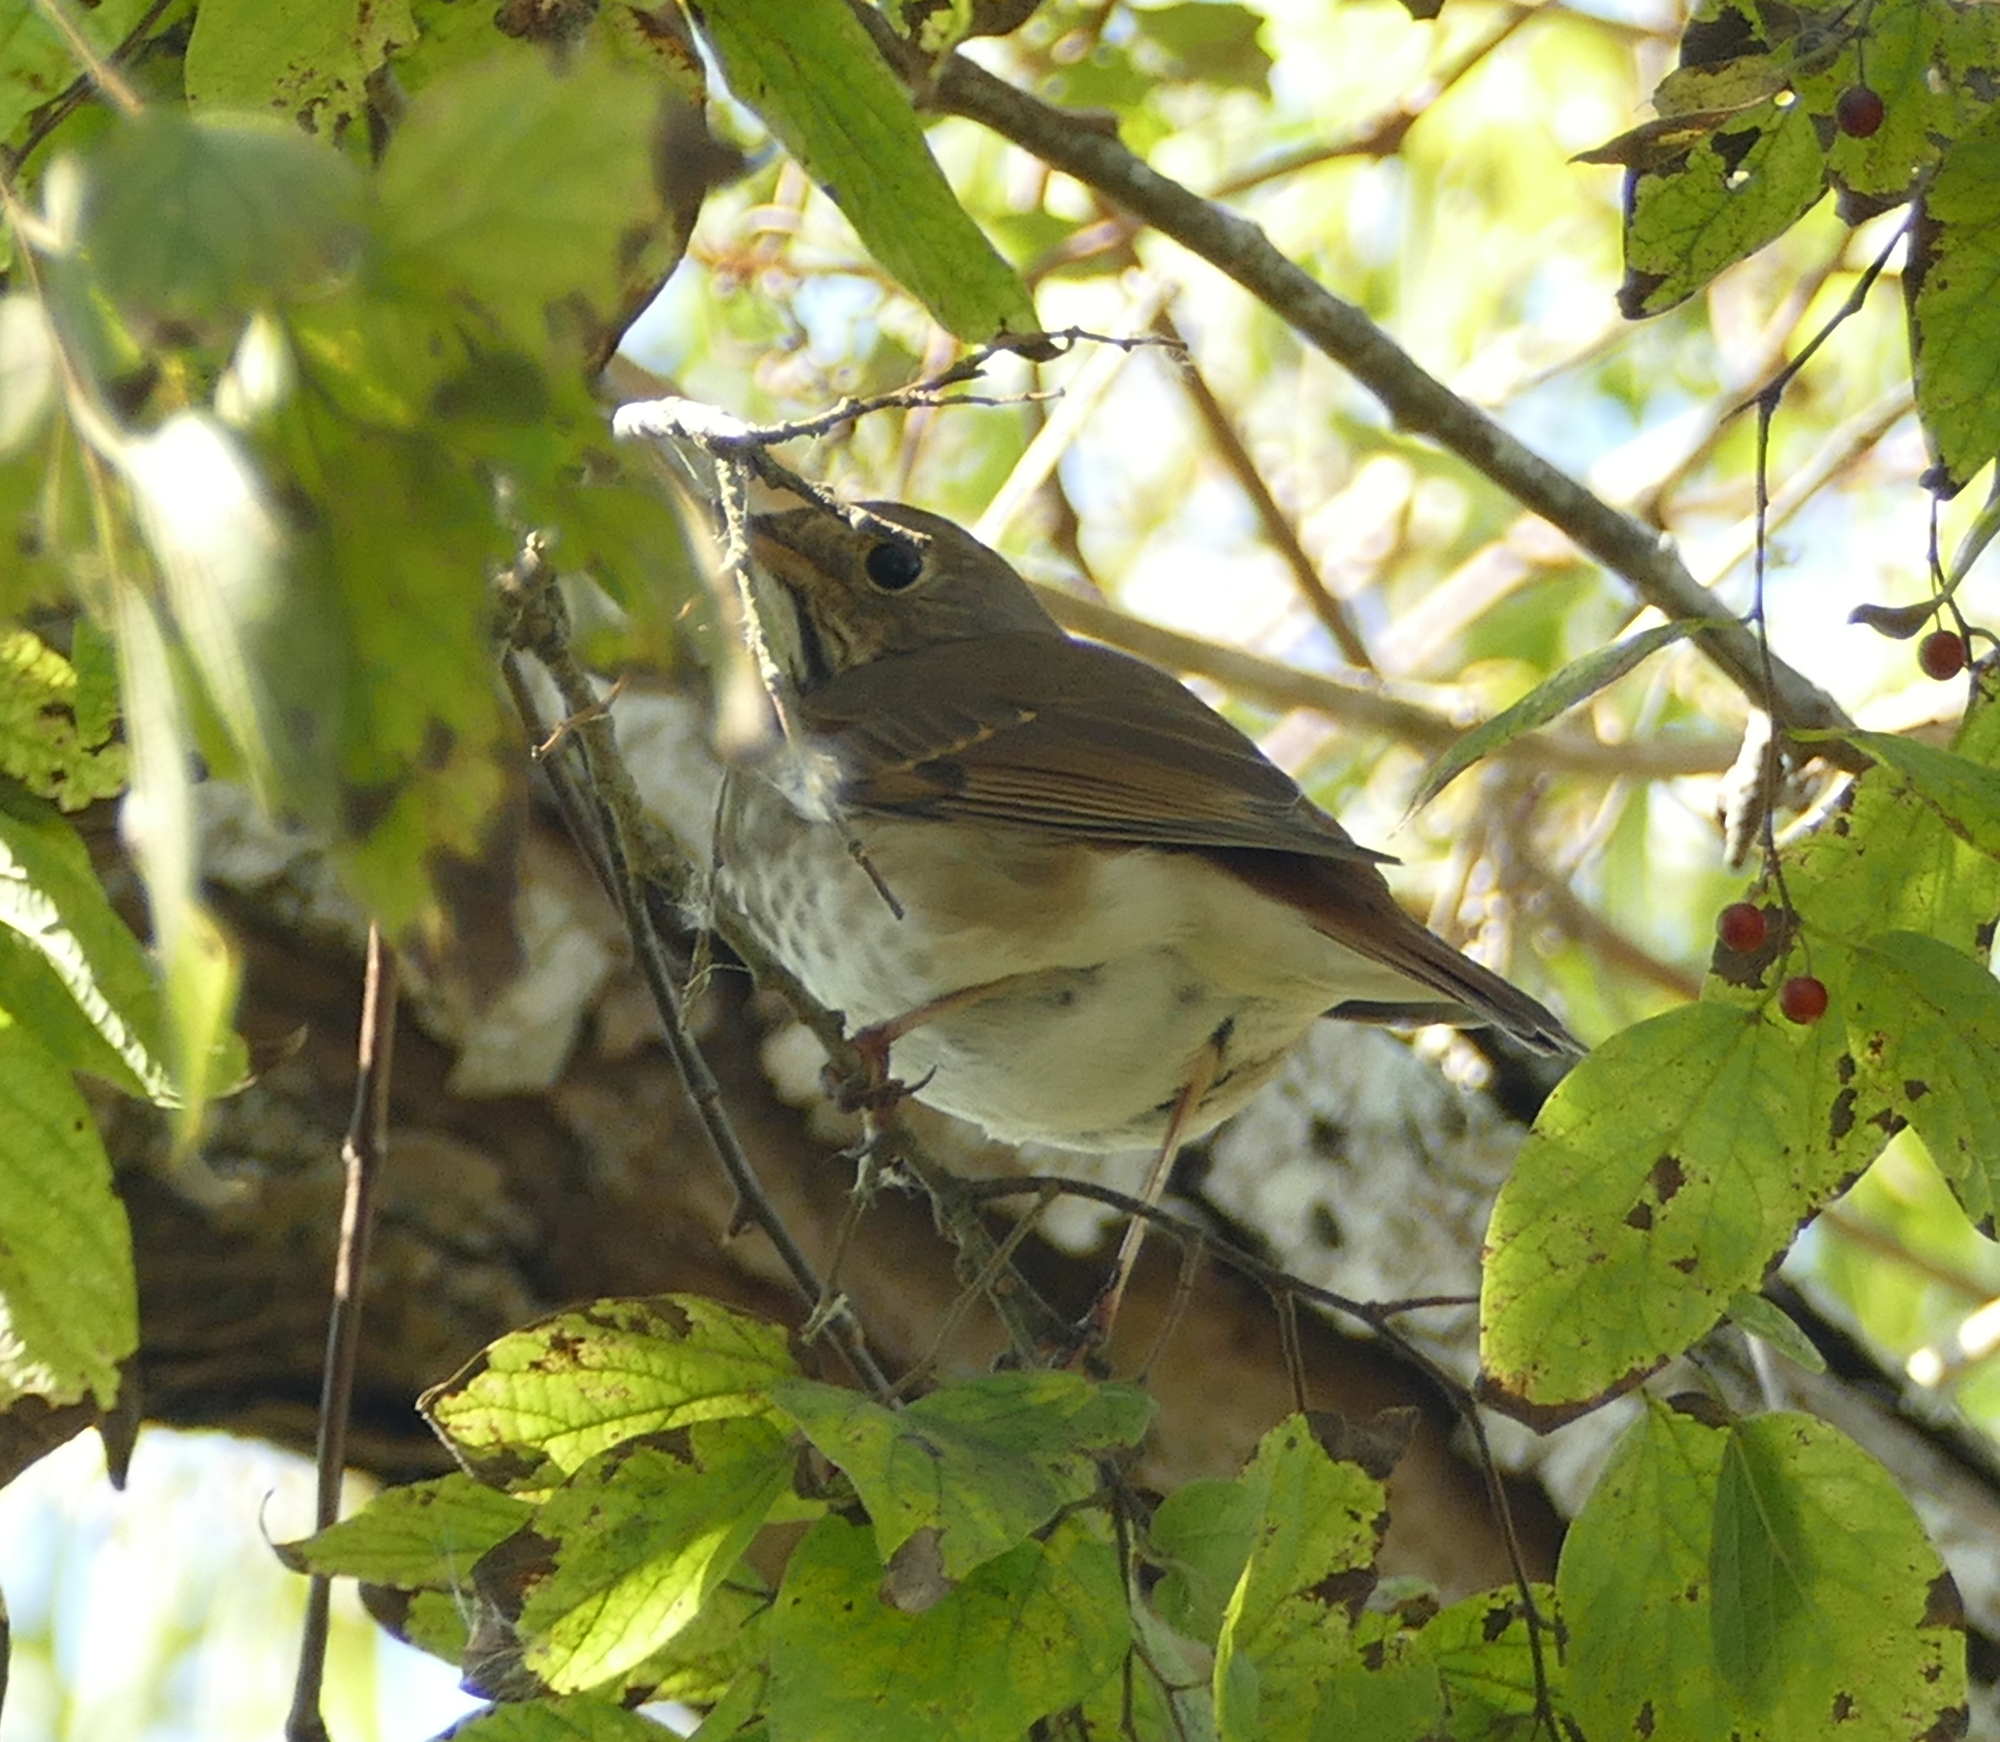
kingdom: Animalia
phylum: Chordata
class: Aves
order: Passeriformes
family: Turdidae
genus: Catharus
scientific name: Catharus guttatus
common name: Hermit thrush
